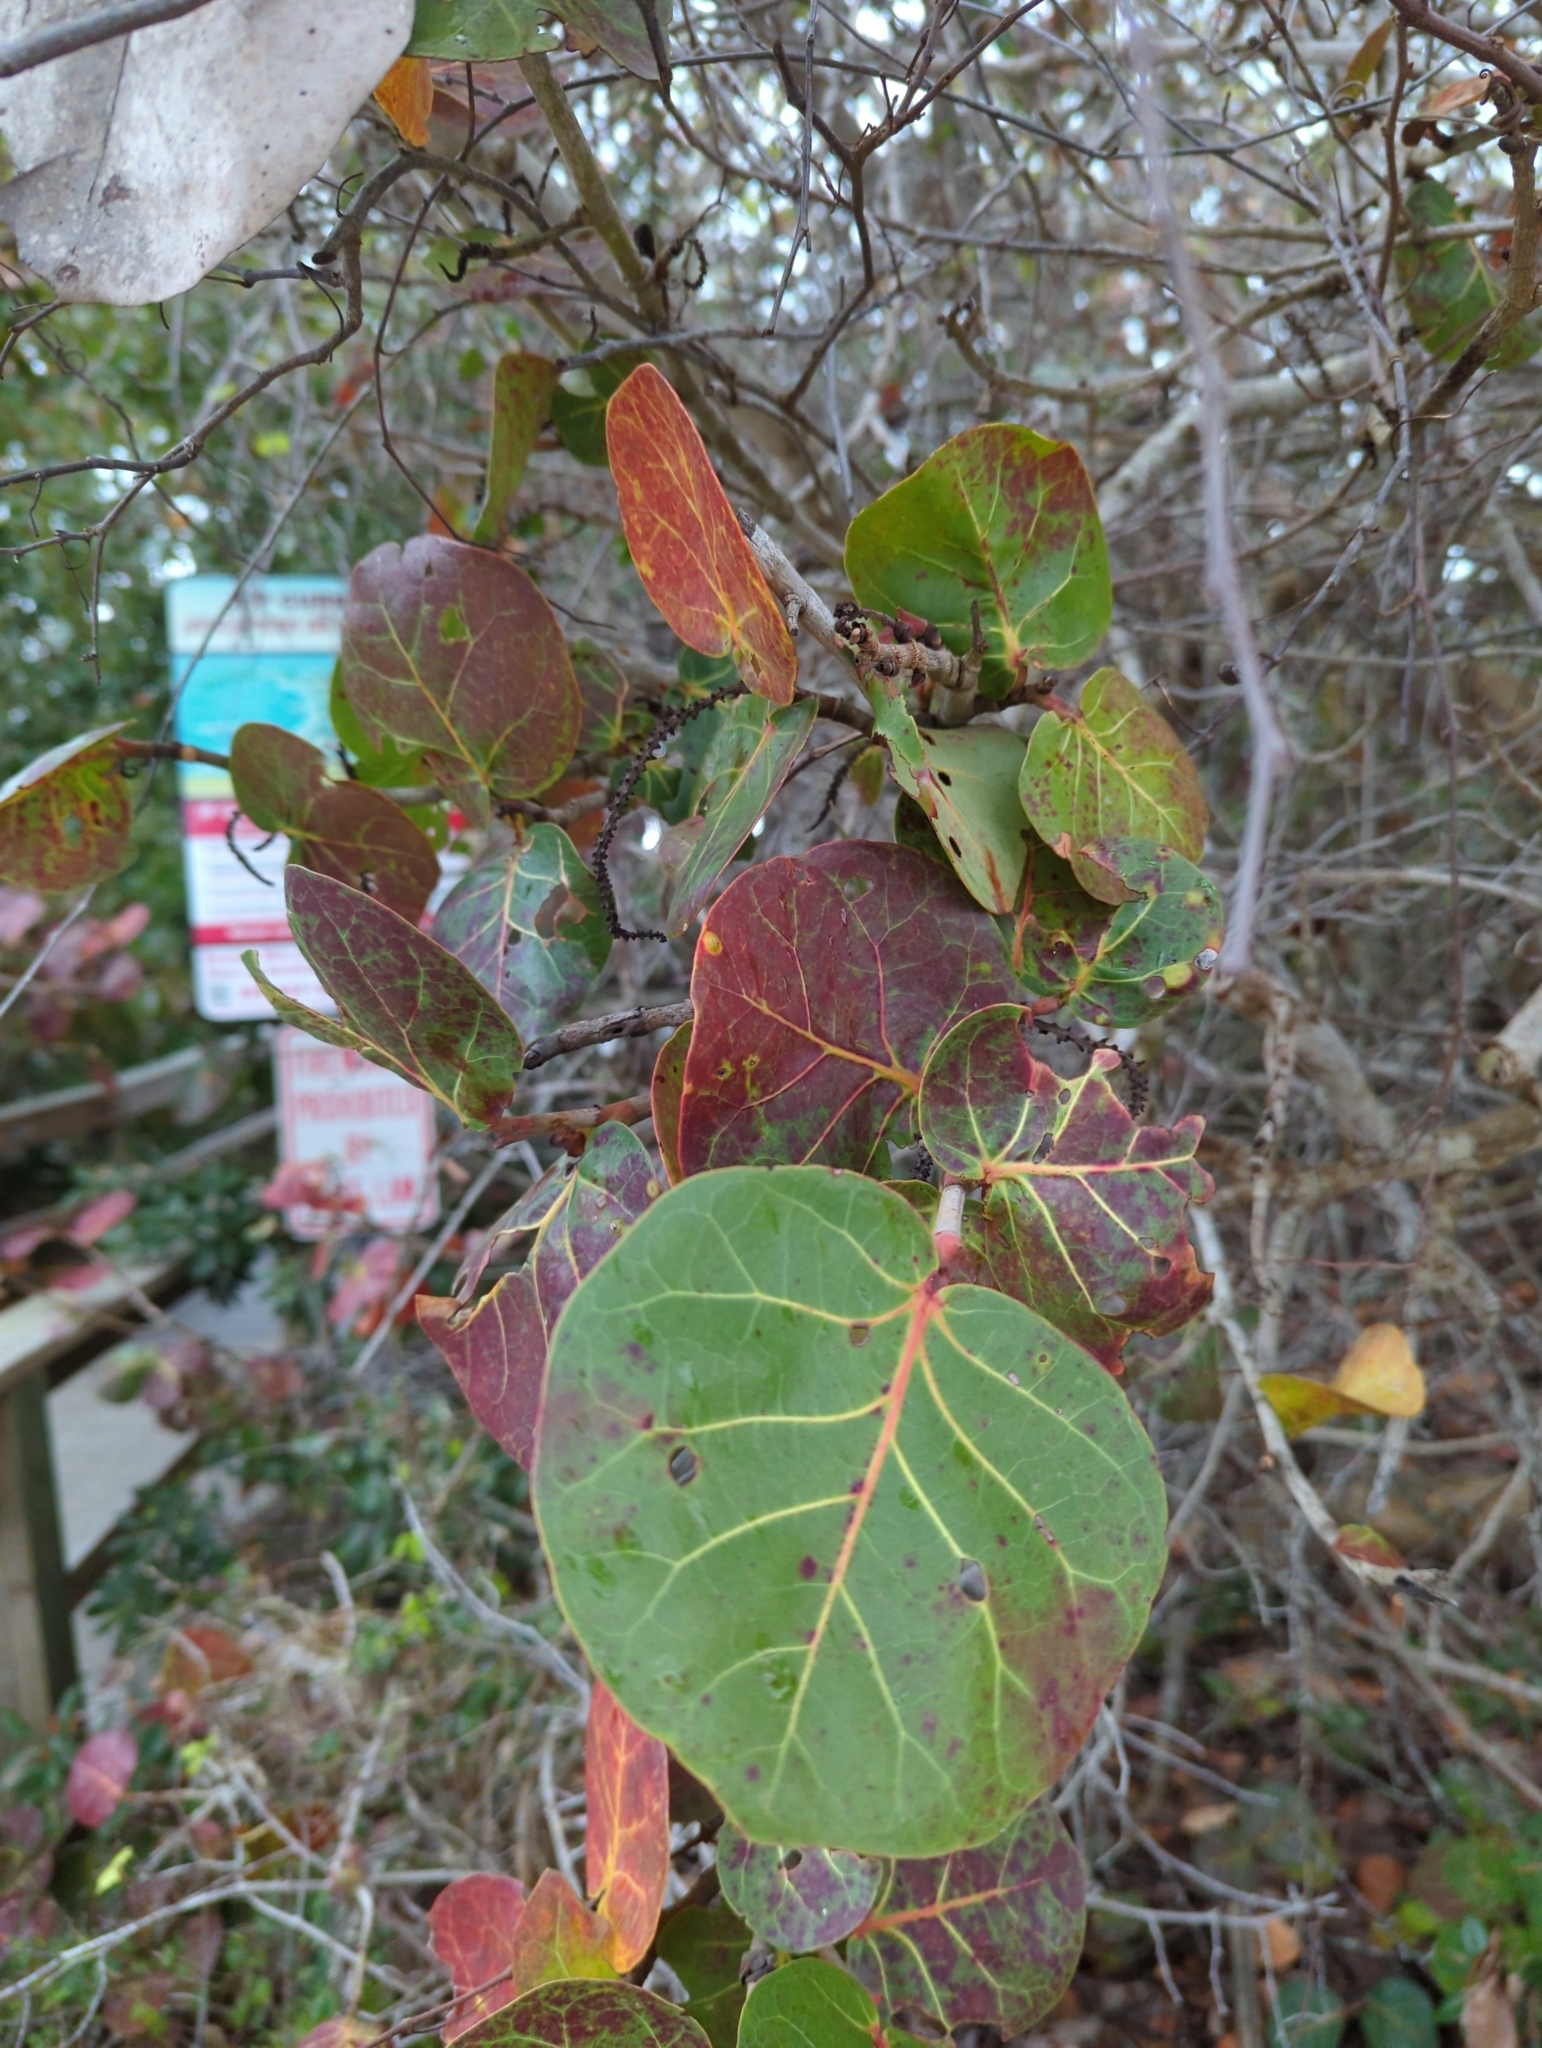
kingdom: Plantae
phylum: Tracheophyta
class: Magnoliopsida
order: Caryophyllales
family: Polygonaceae
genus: Coccoloba
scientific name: Coccoloba uvifera
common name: Seagrape
